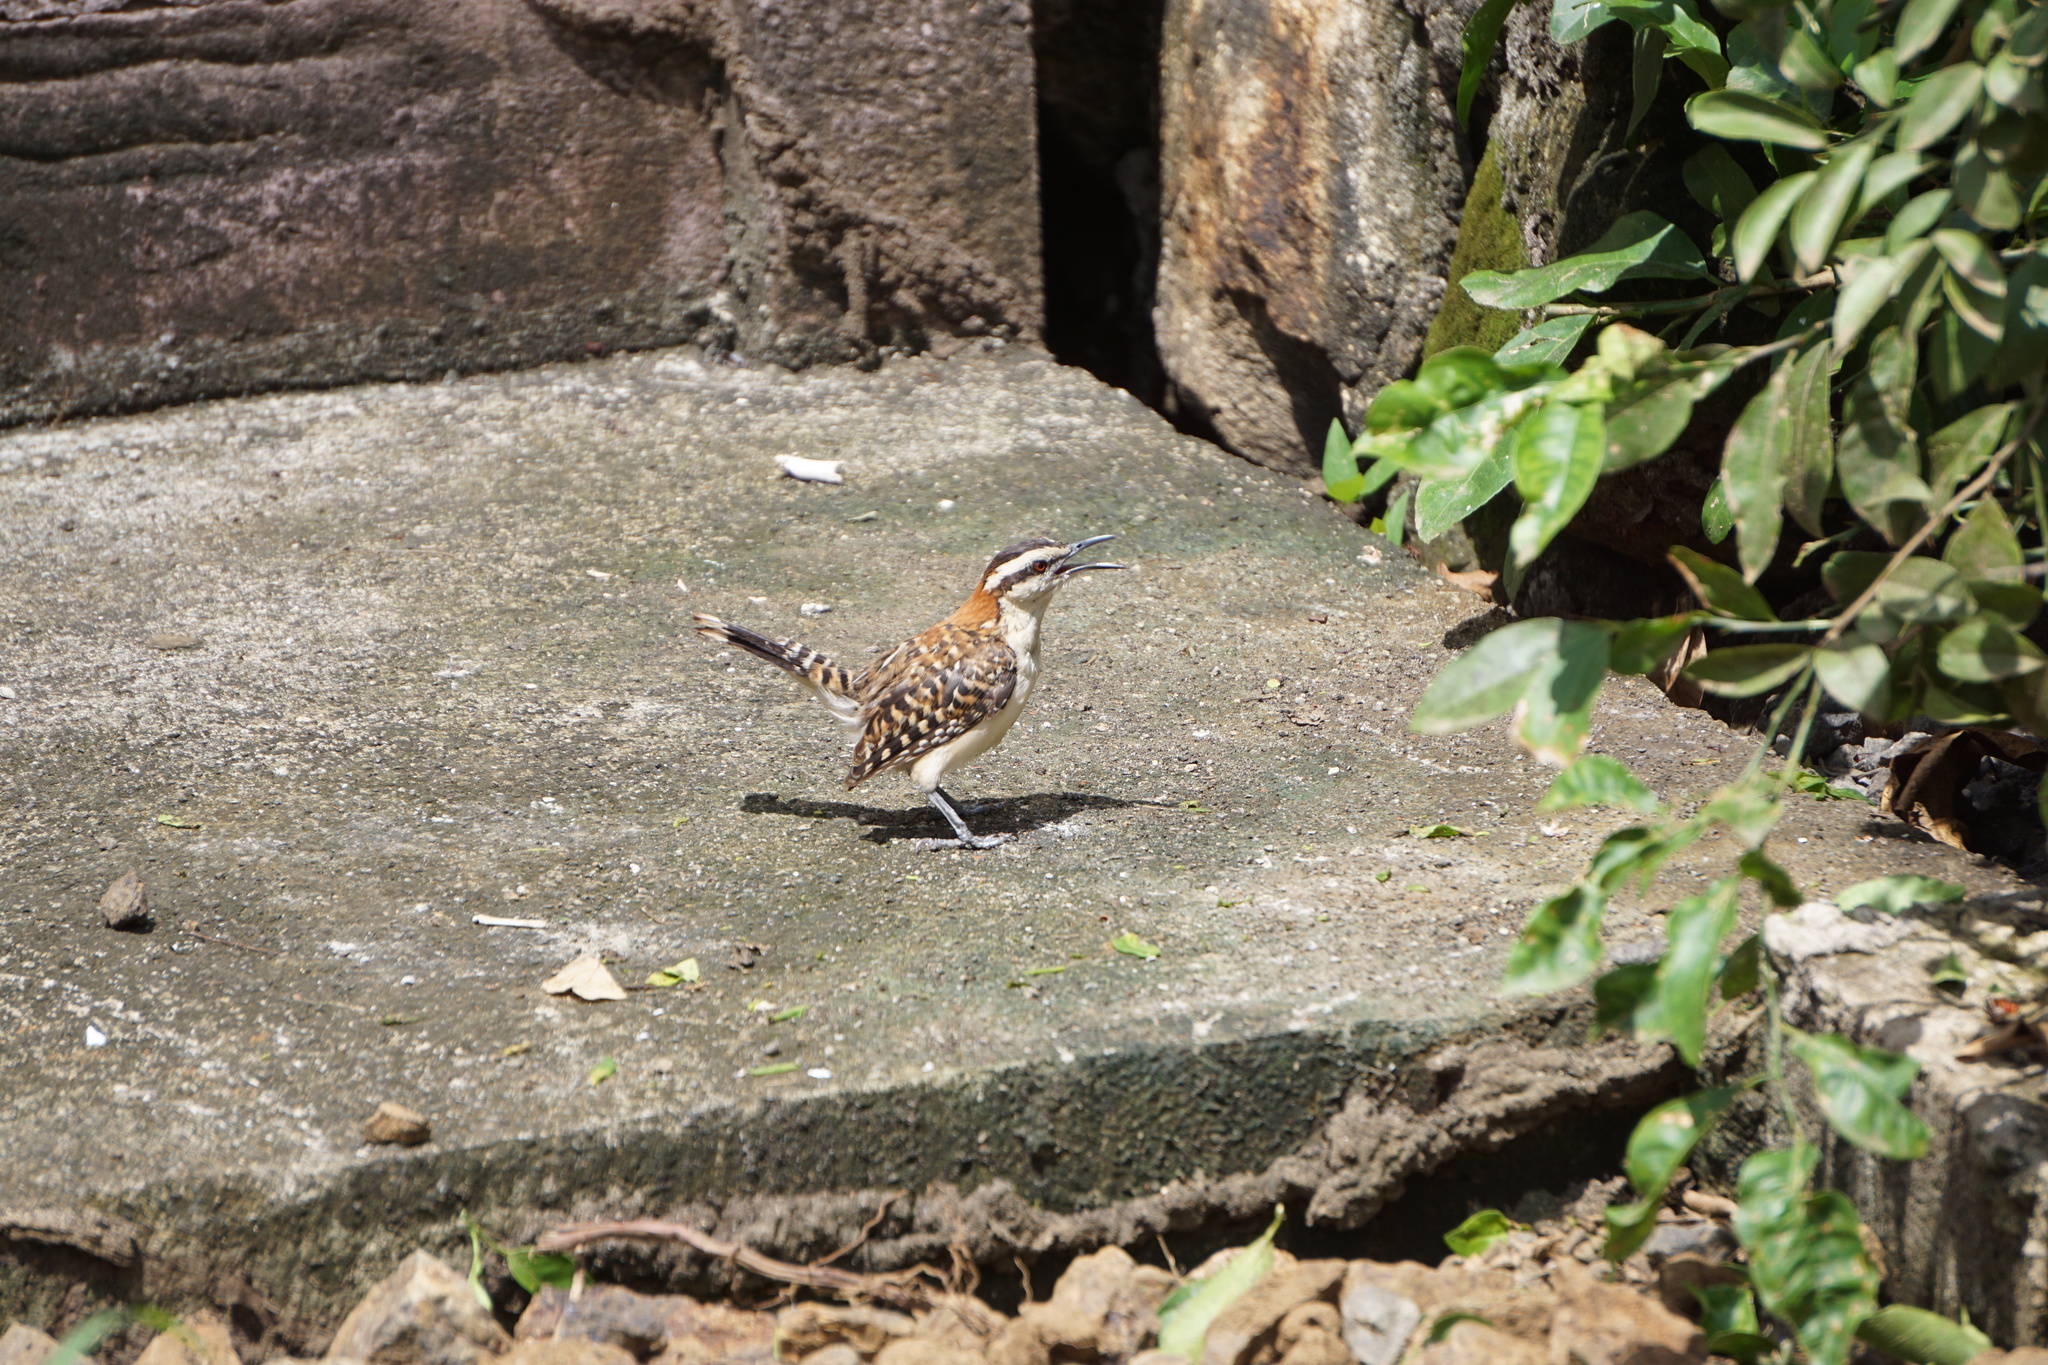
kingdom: Animalia
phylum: Chordata
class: Aves
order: Passeriformes
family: Troglodytidae
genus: Campylorhynchus
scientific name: Campylorhynchus rufinucha
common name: Rufous-naped wren
